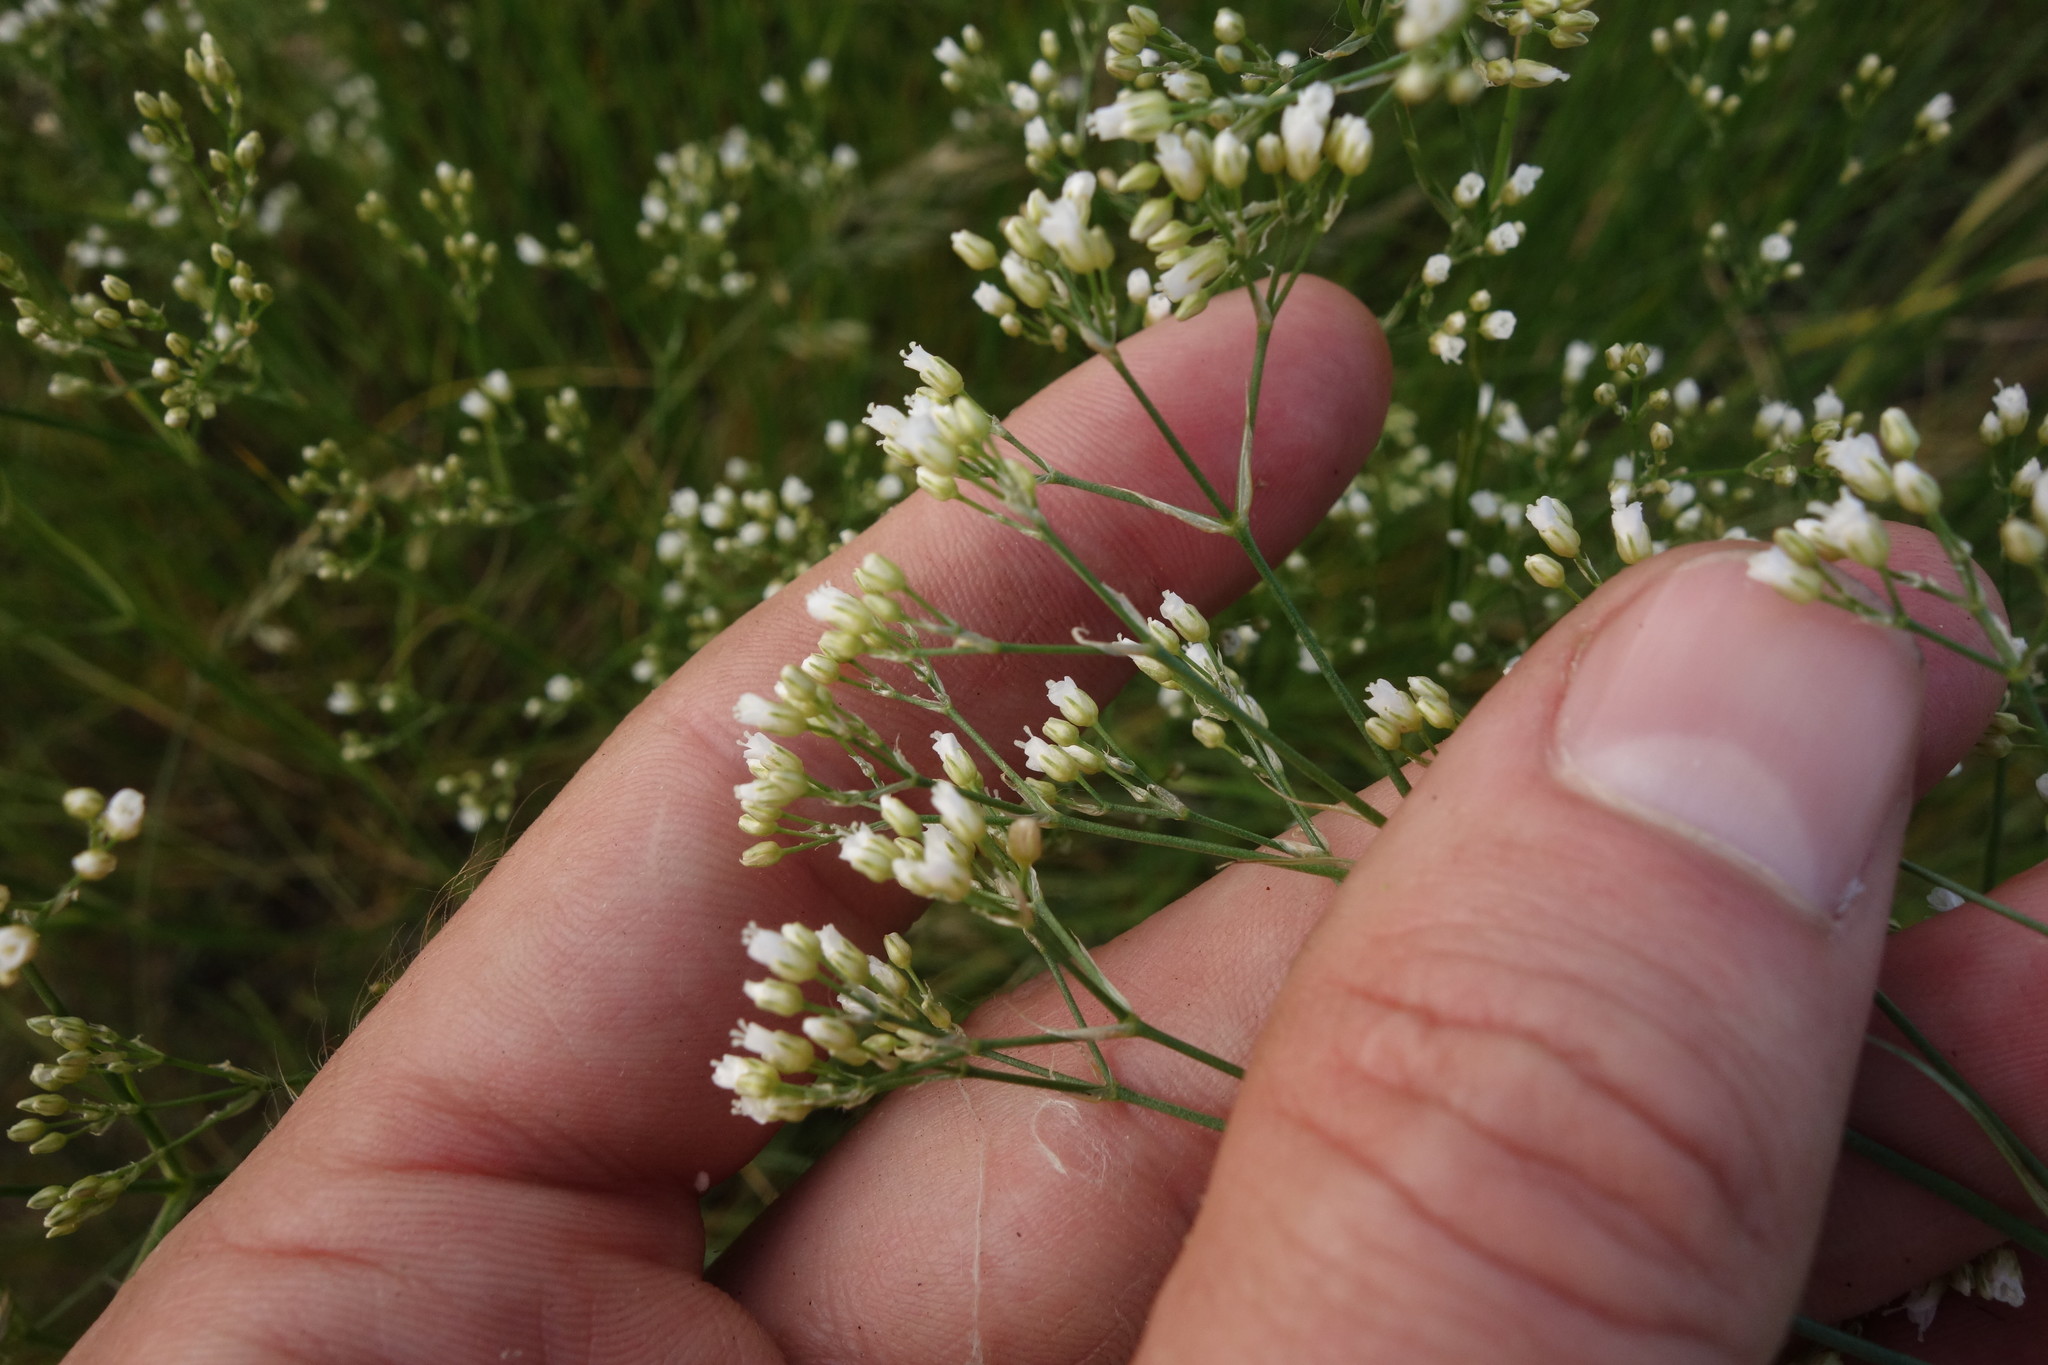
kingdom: Plantae
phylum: Tracheophyta
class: Magnoliopsida
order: Caryophyllales
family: Caryophyllaceae
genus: Eremogone
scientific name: Eremogone longifolia
